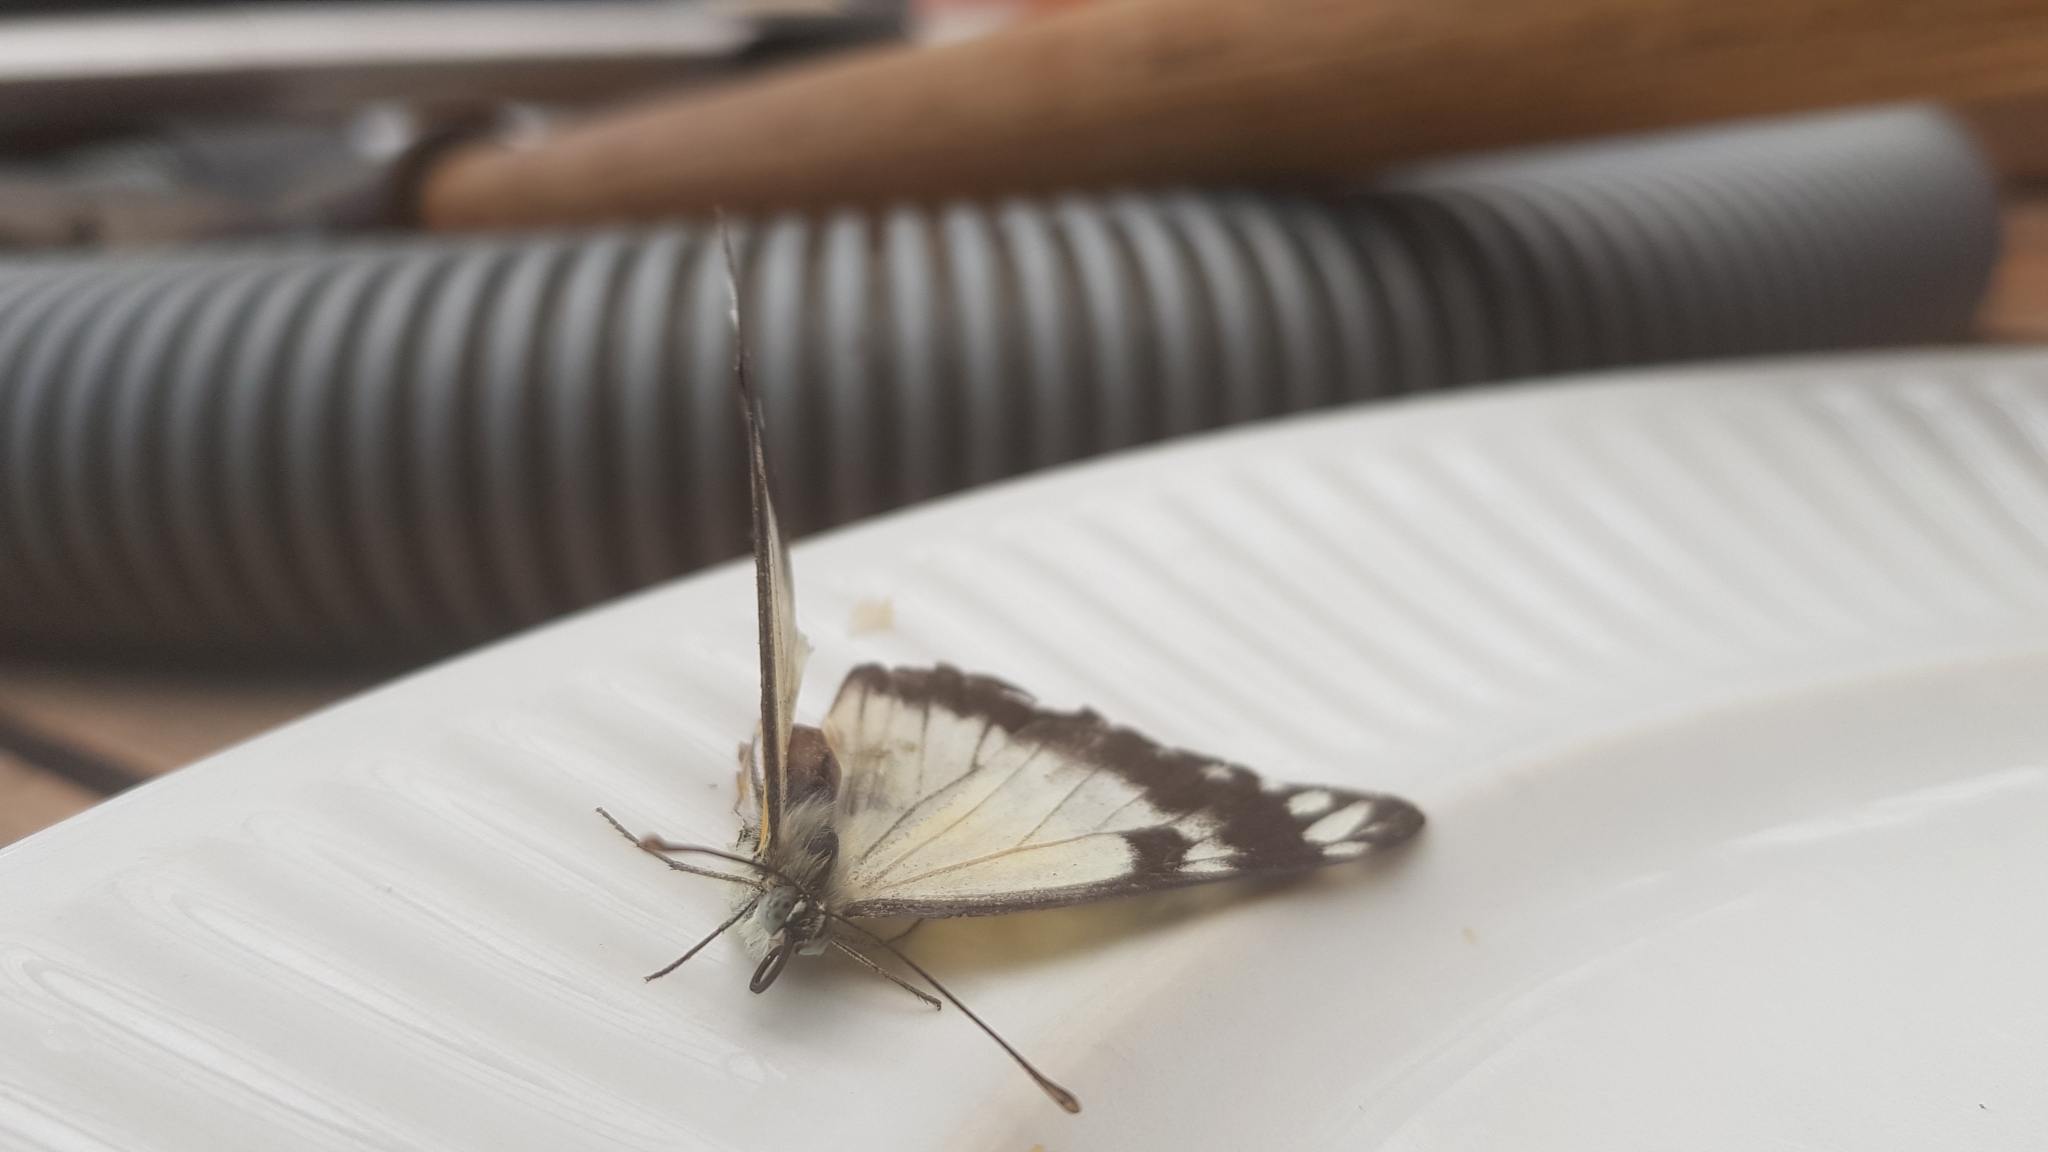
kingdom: Animalia
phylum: Arthropoda
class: Insecta
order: Lepidoptera
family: Pieridae
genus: Belenois
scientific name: Belenois java
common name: Caper white
